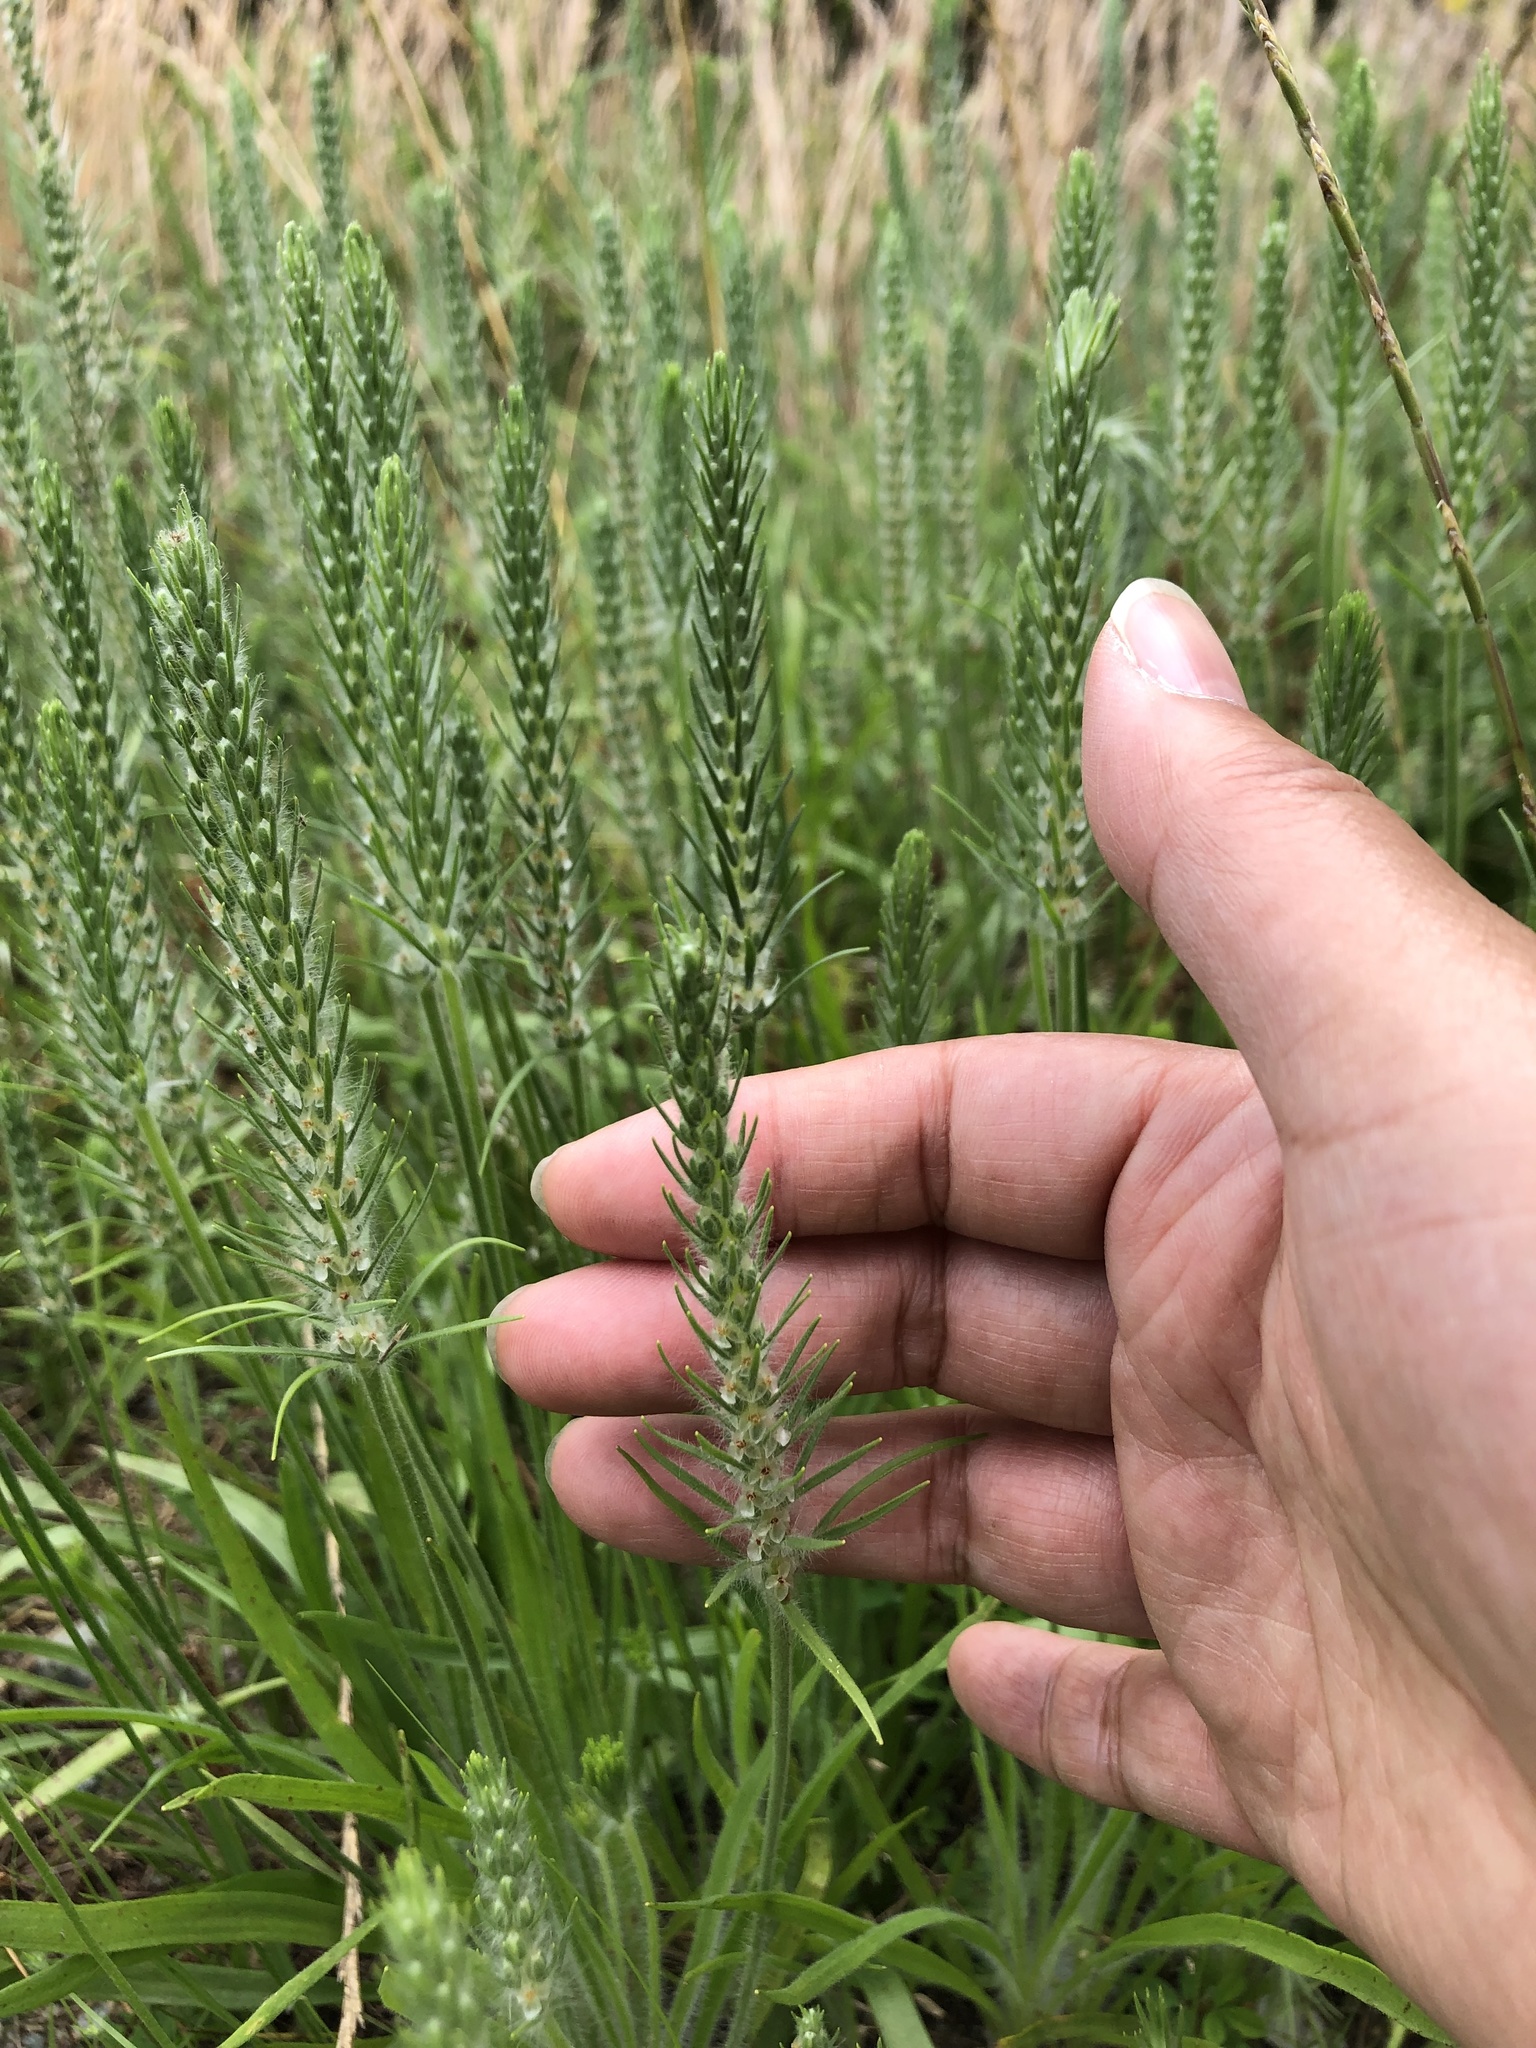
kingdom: Plantae
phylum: Tracheophyta
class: Magnoliopsida
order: Lamiales
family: Plantaginaceae
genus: Plantago
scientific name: Plantago aristata
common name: Bracted plantain
